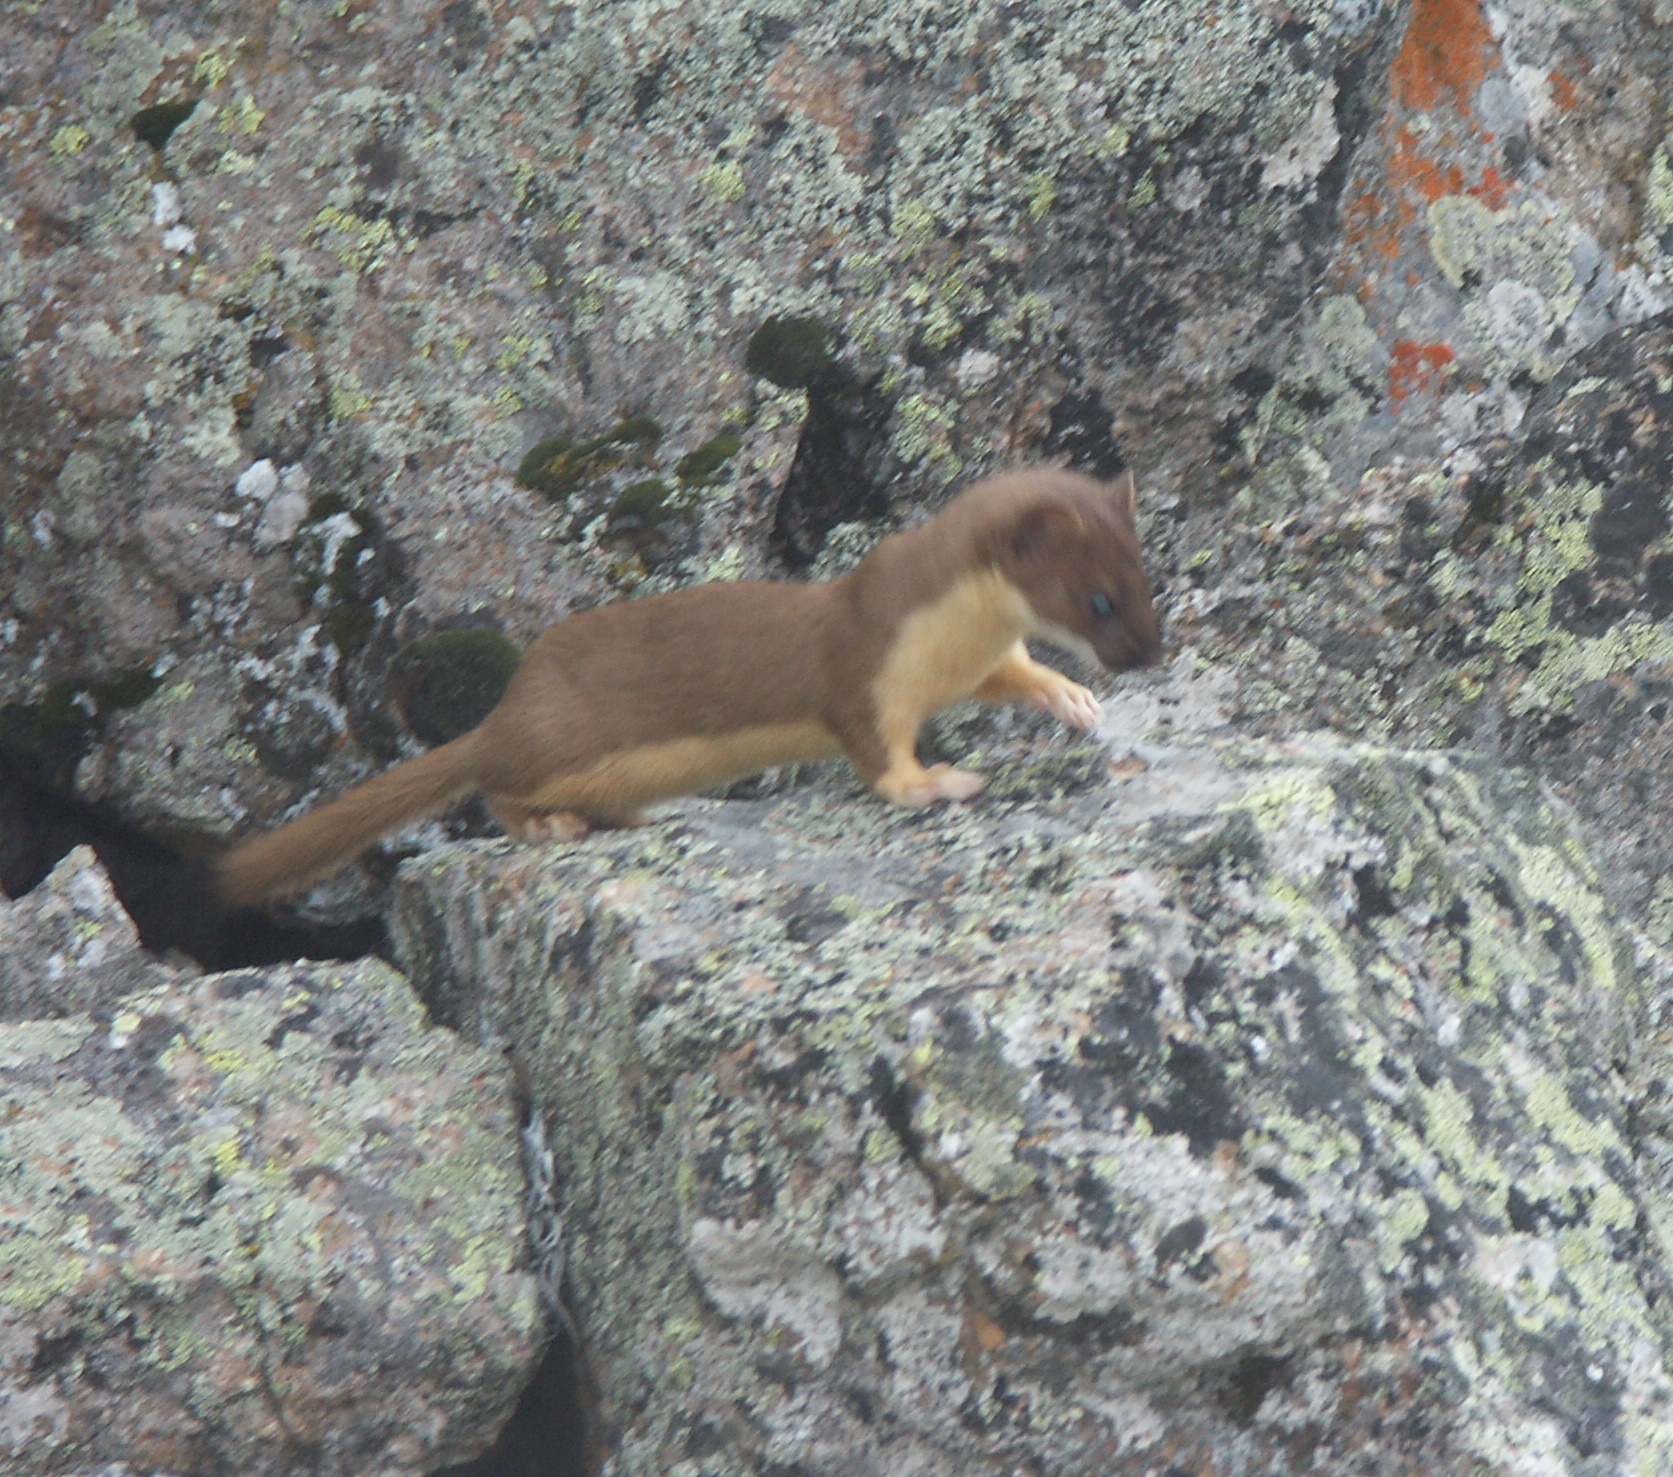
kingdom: Animalia
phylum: Chordata
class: Mammalia
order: Carnivora
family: Mustelidae
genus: Mustela
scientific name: Mustela
